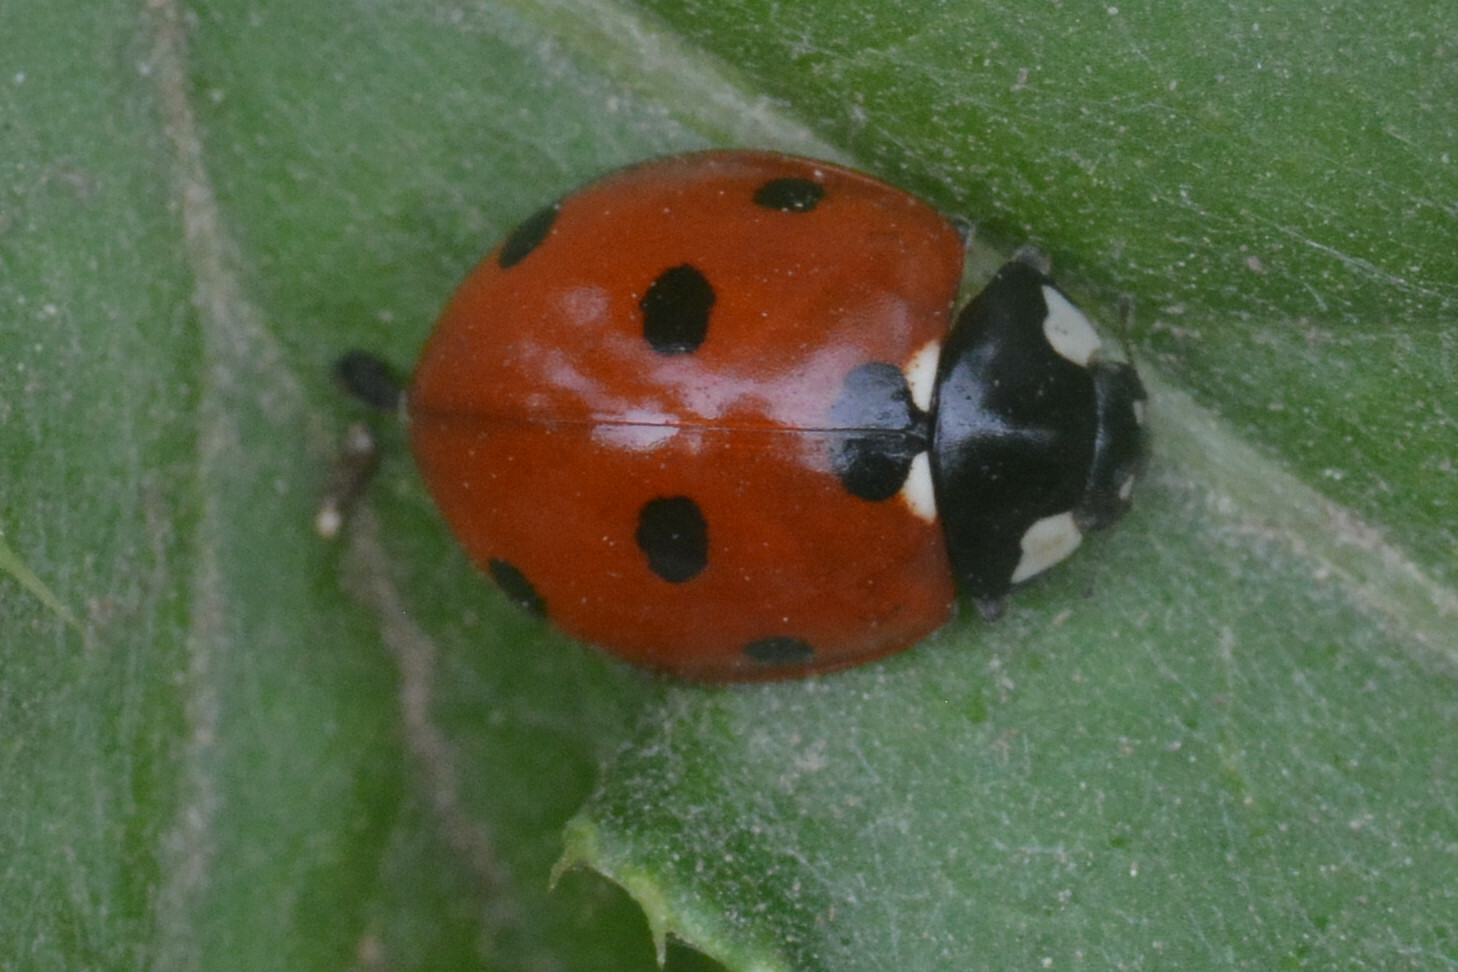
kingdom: Animalia
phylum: Arthropoda
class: Insecta
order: Coleoptera
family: Coccinellidae
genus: Coccinella
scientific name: Coccinella septempunctata
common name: Sevenspotted lady beetle
